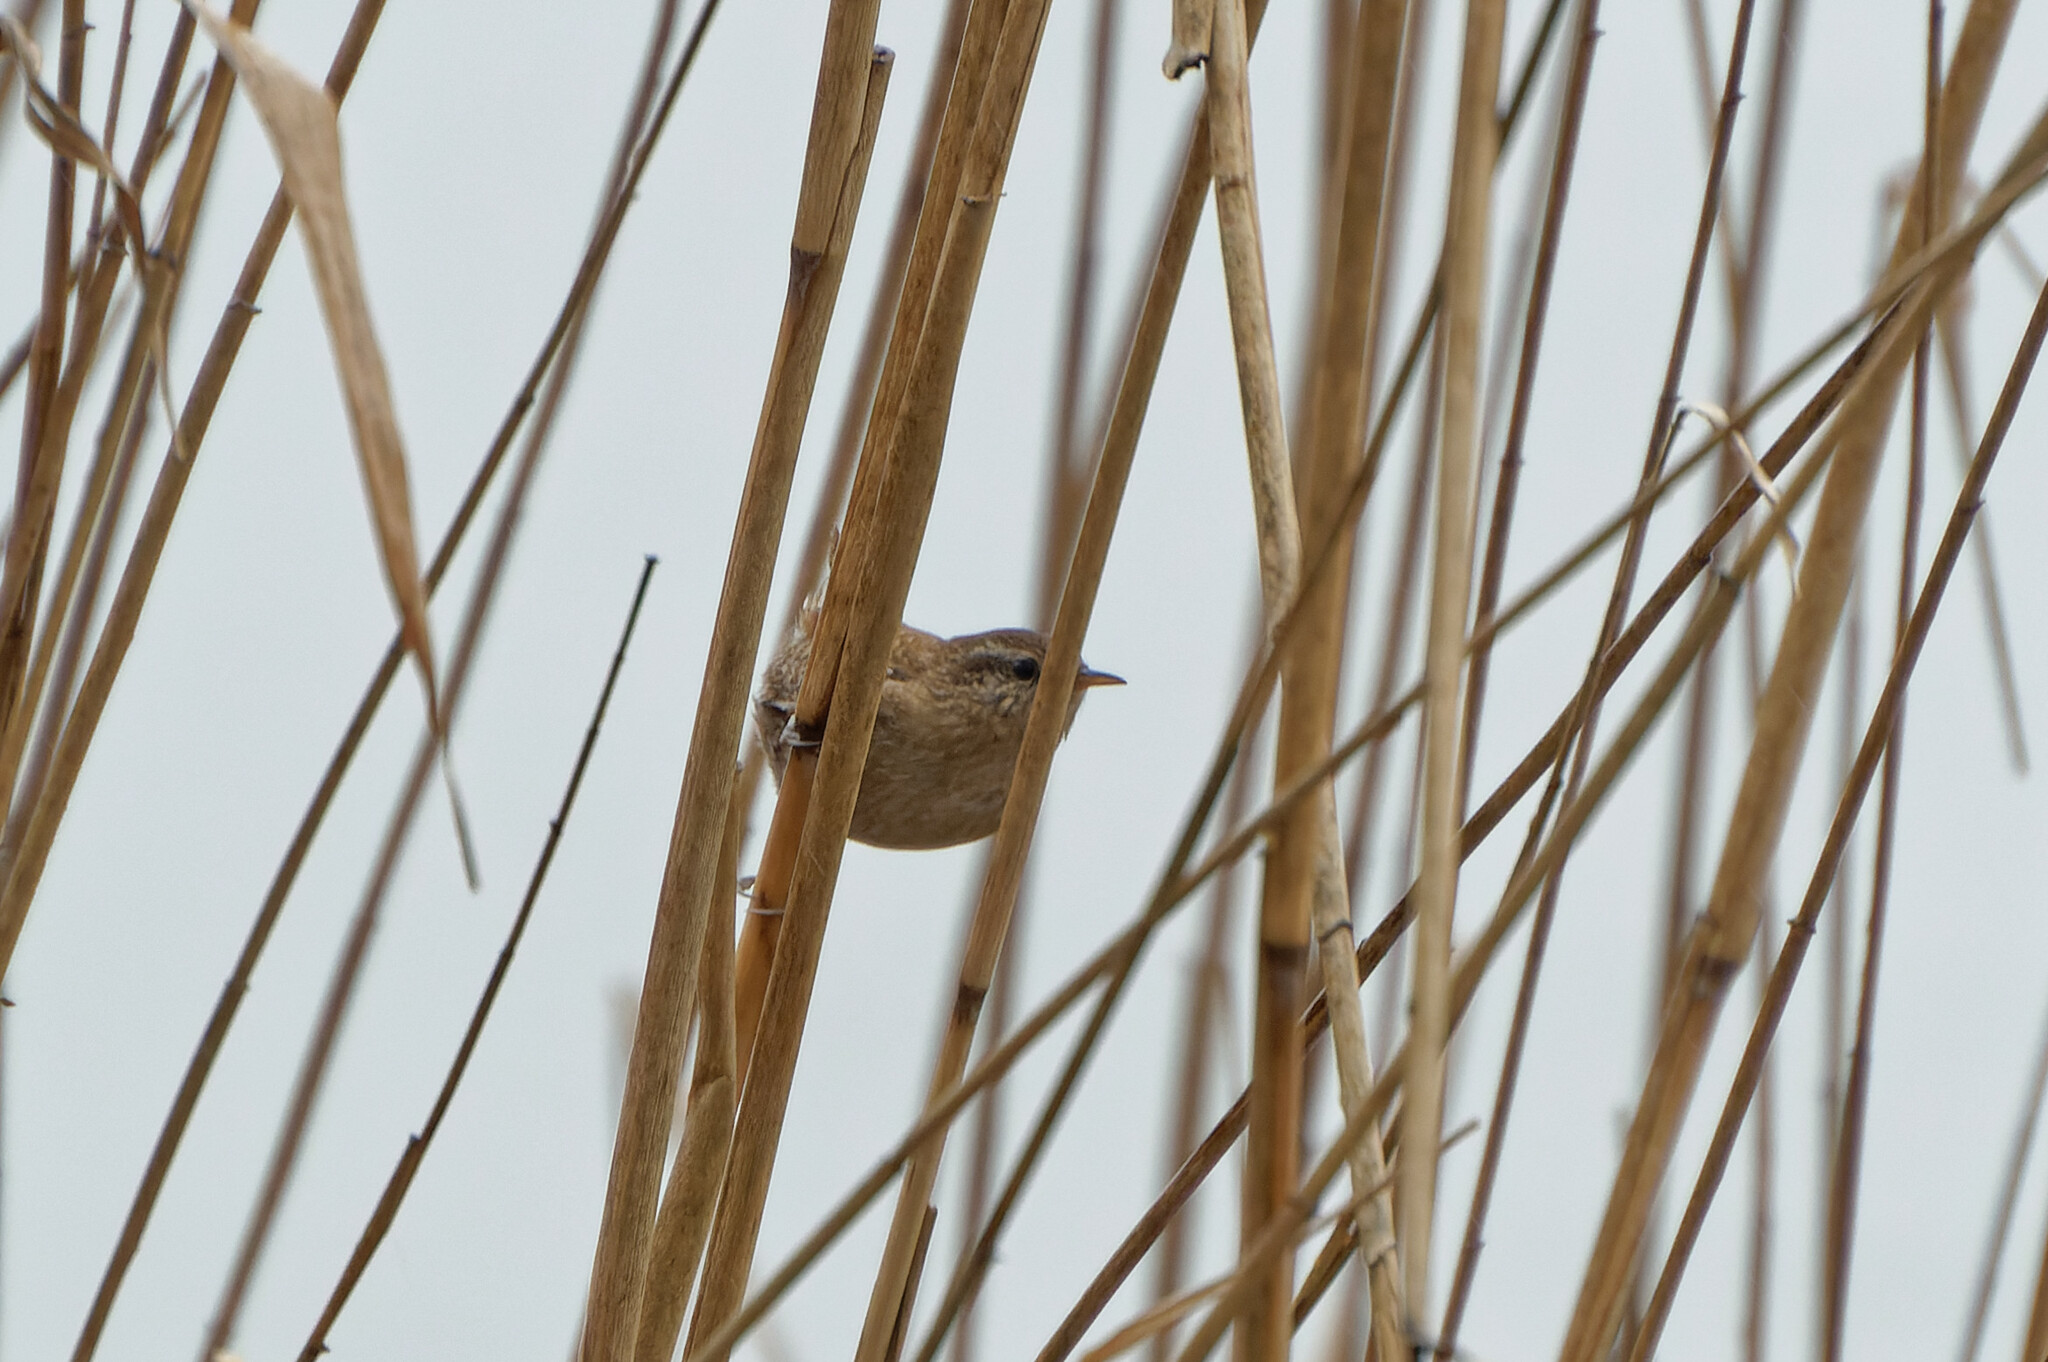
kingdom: Animalia
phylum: Chordata
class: Aves
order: Passeriformes
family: Troglodytidae
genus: Troglodytes
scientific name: Troglodytes troglodytes
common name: Eurasian wren
